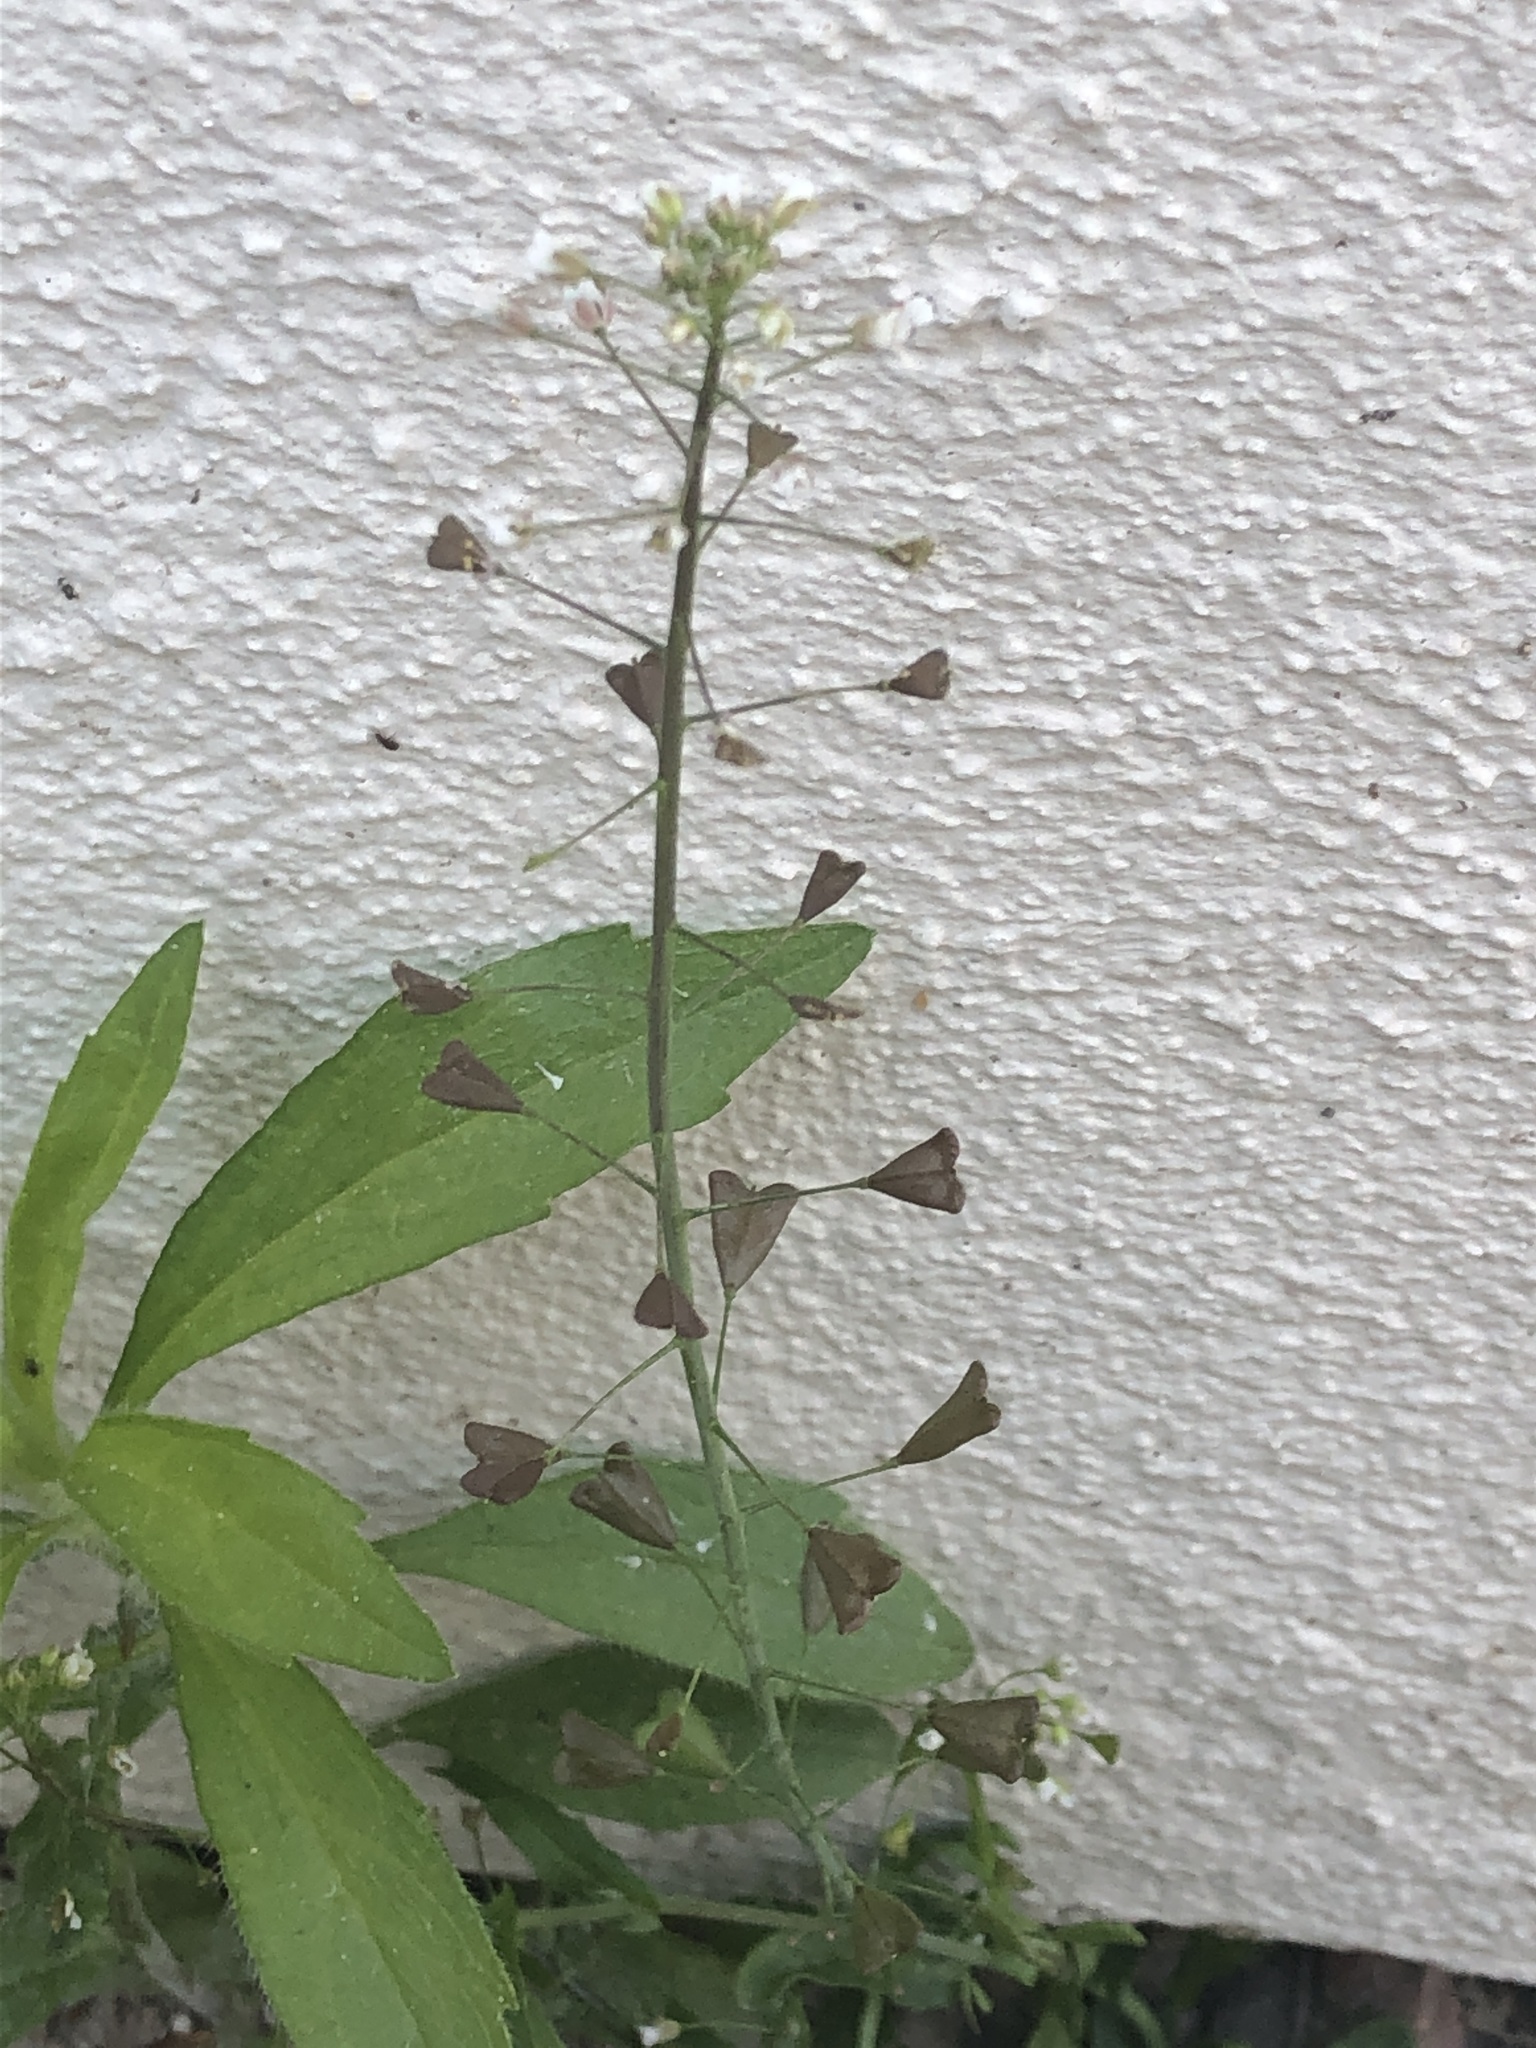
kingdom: Plantae
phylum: Tracheophyta
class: Magnoliopsida
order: Brassicales
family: Brassicaceae
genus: Capsella
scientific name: Capsella bursa-pastoris
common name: Shepherd's purse
